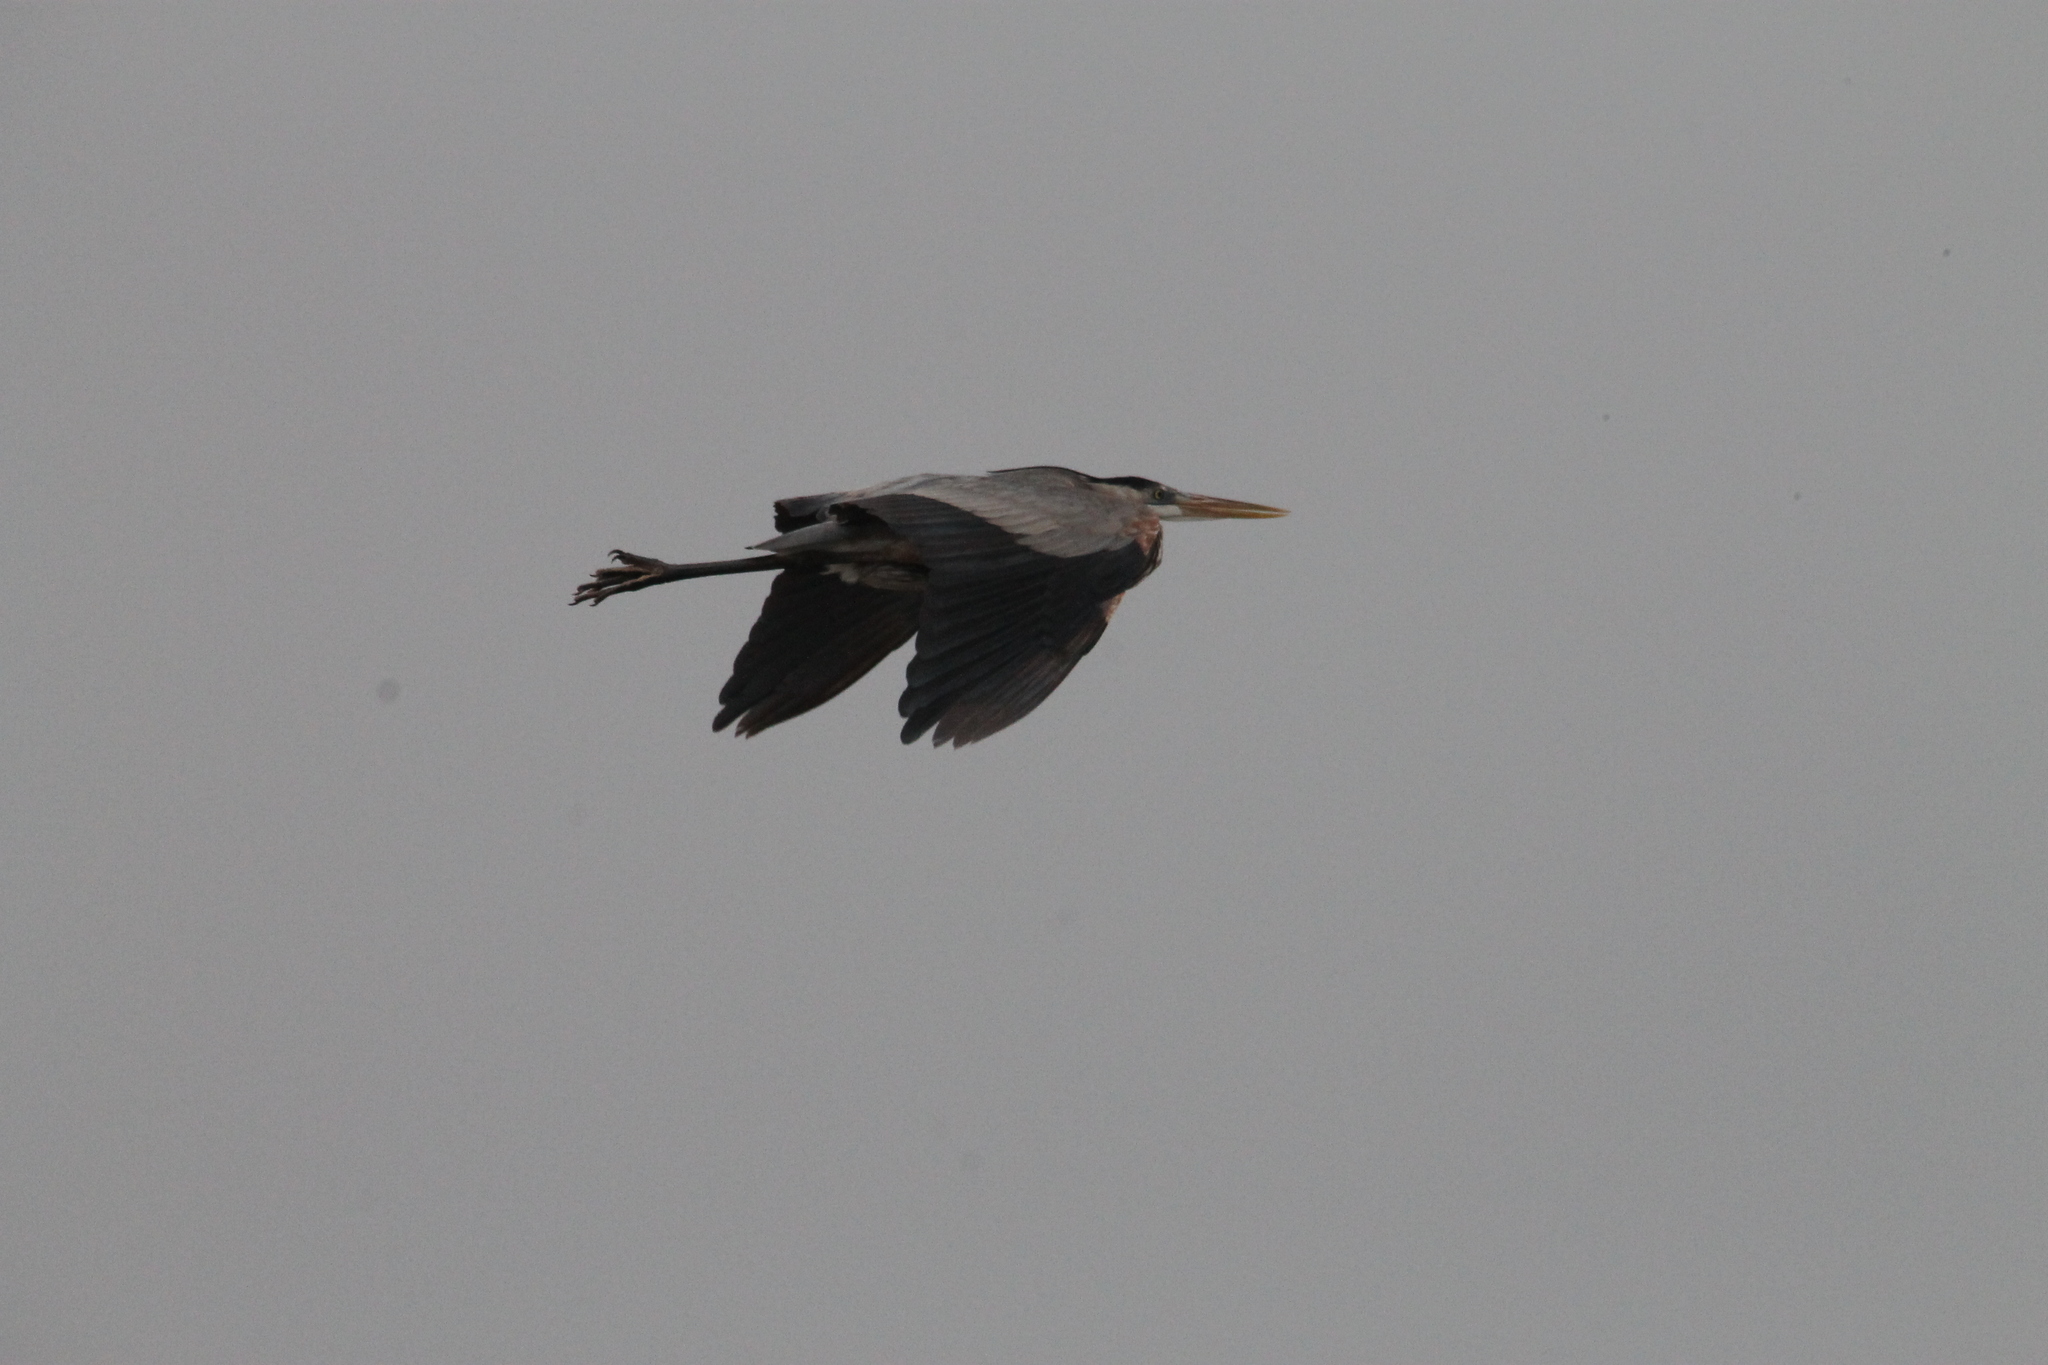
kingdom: Animalia
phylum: Chordata
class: Aves
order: Pelecaniformes
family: Ardeidae
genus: Ardea
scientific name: Ardea herodias
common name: Great blue heron
